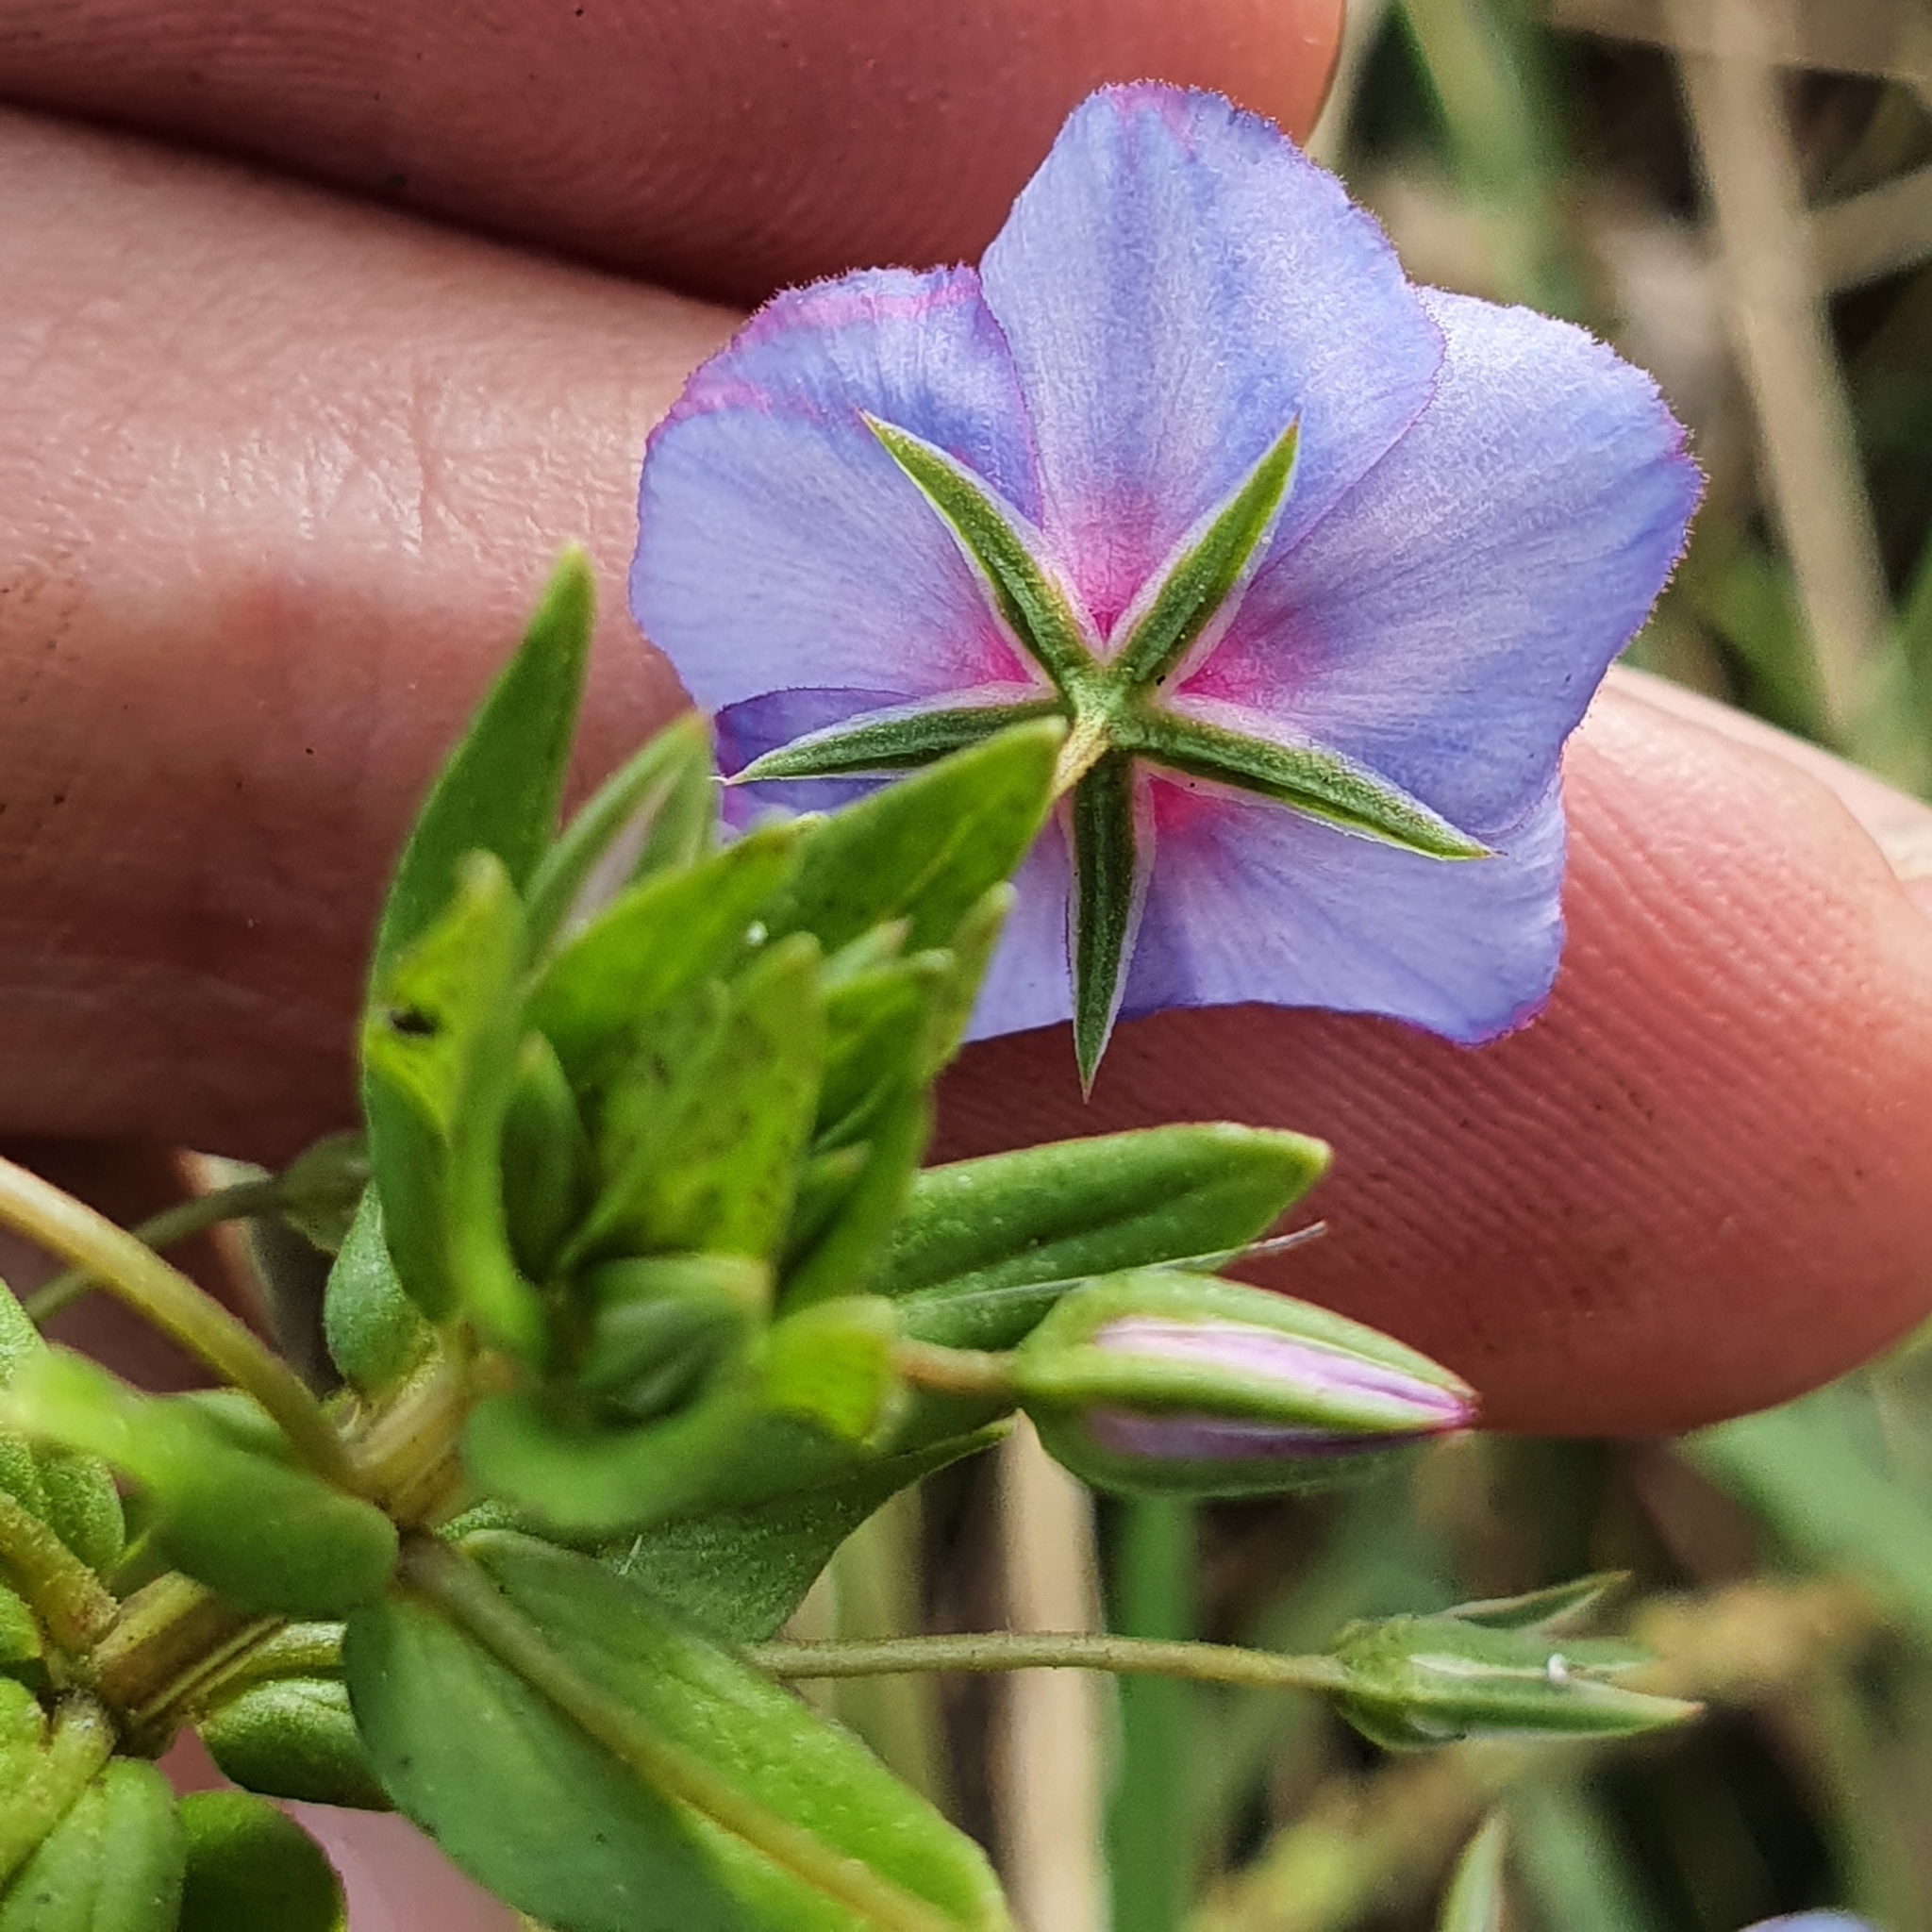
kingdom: Plantae
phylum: Tracheophyta
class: Magnoliopsida
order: Ericales
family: Primulaceae
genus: Lysimachia
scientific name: Lysimachia arvensis
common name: Scarlet pimpernel
